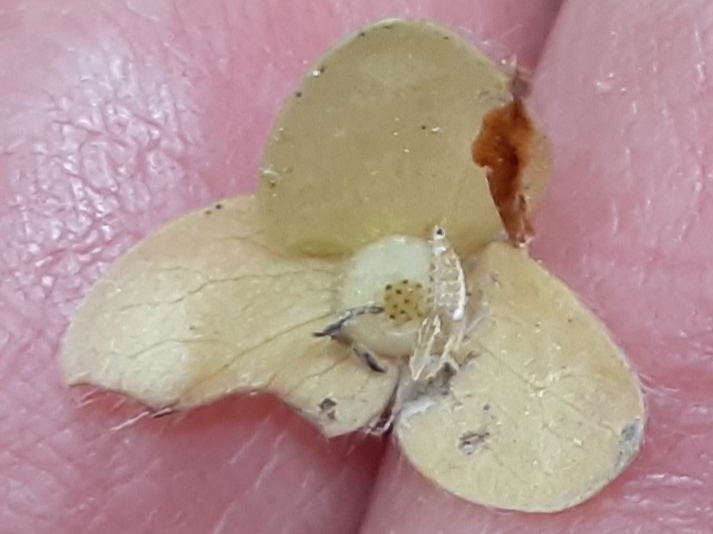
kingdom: Plantae
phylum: Tracheophyta
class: Magnoliopsida
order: Ranunculales
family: Ranunculaceae
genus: Hepatica
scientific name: Hepatica americana
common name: American hepatica
